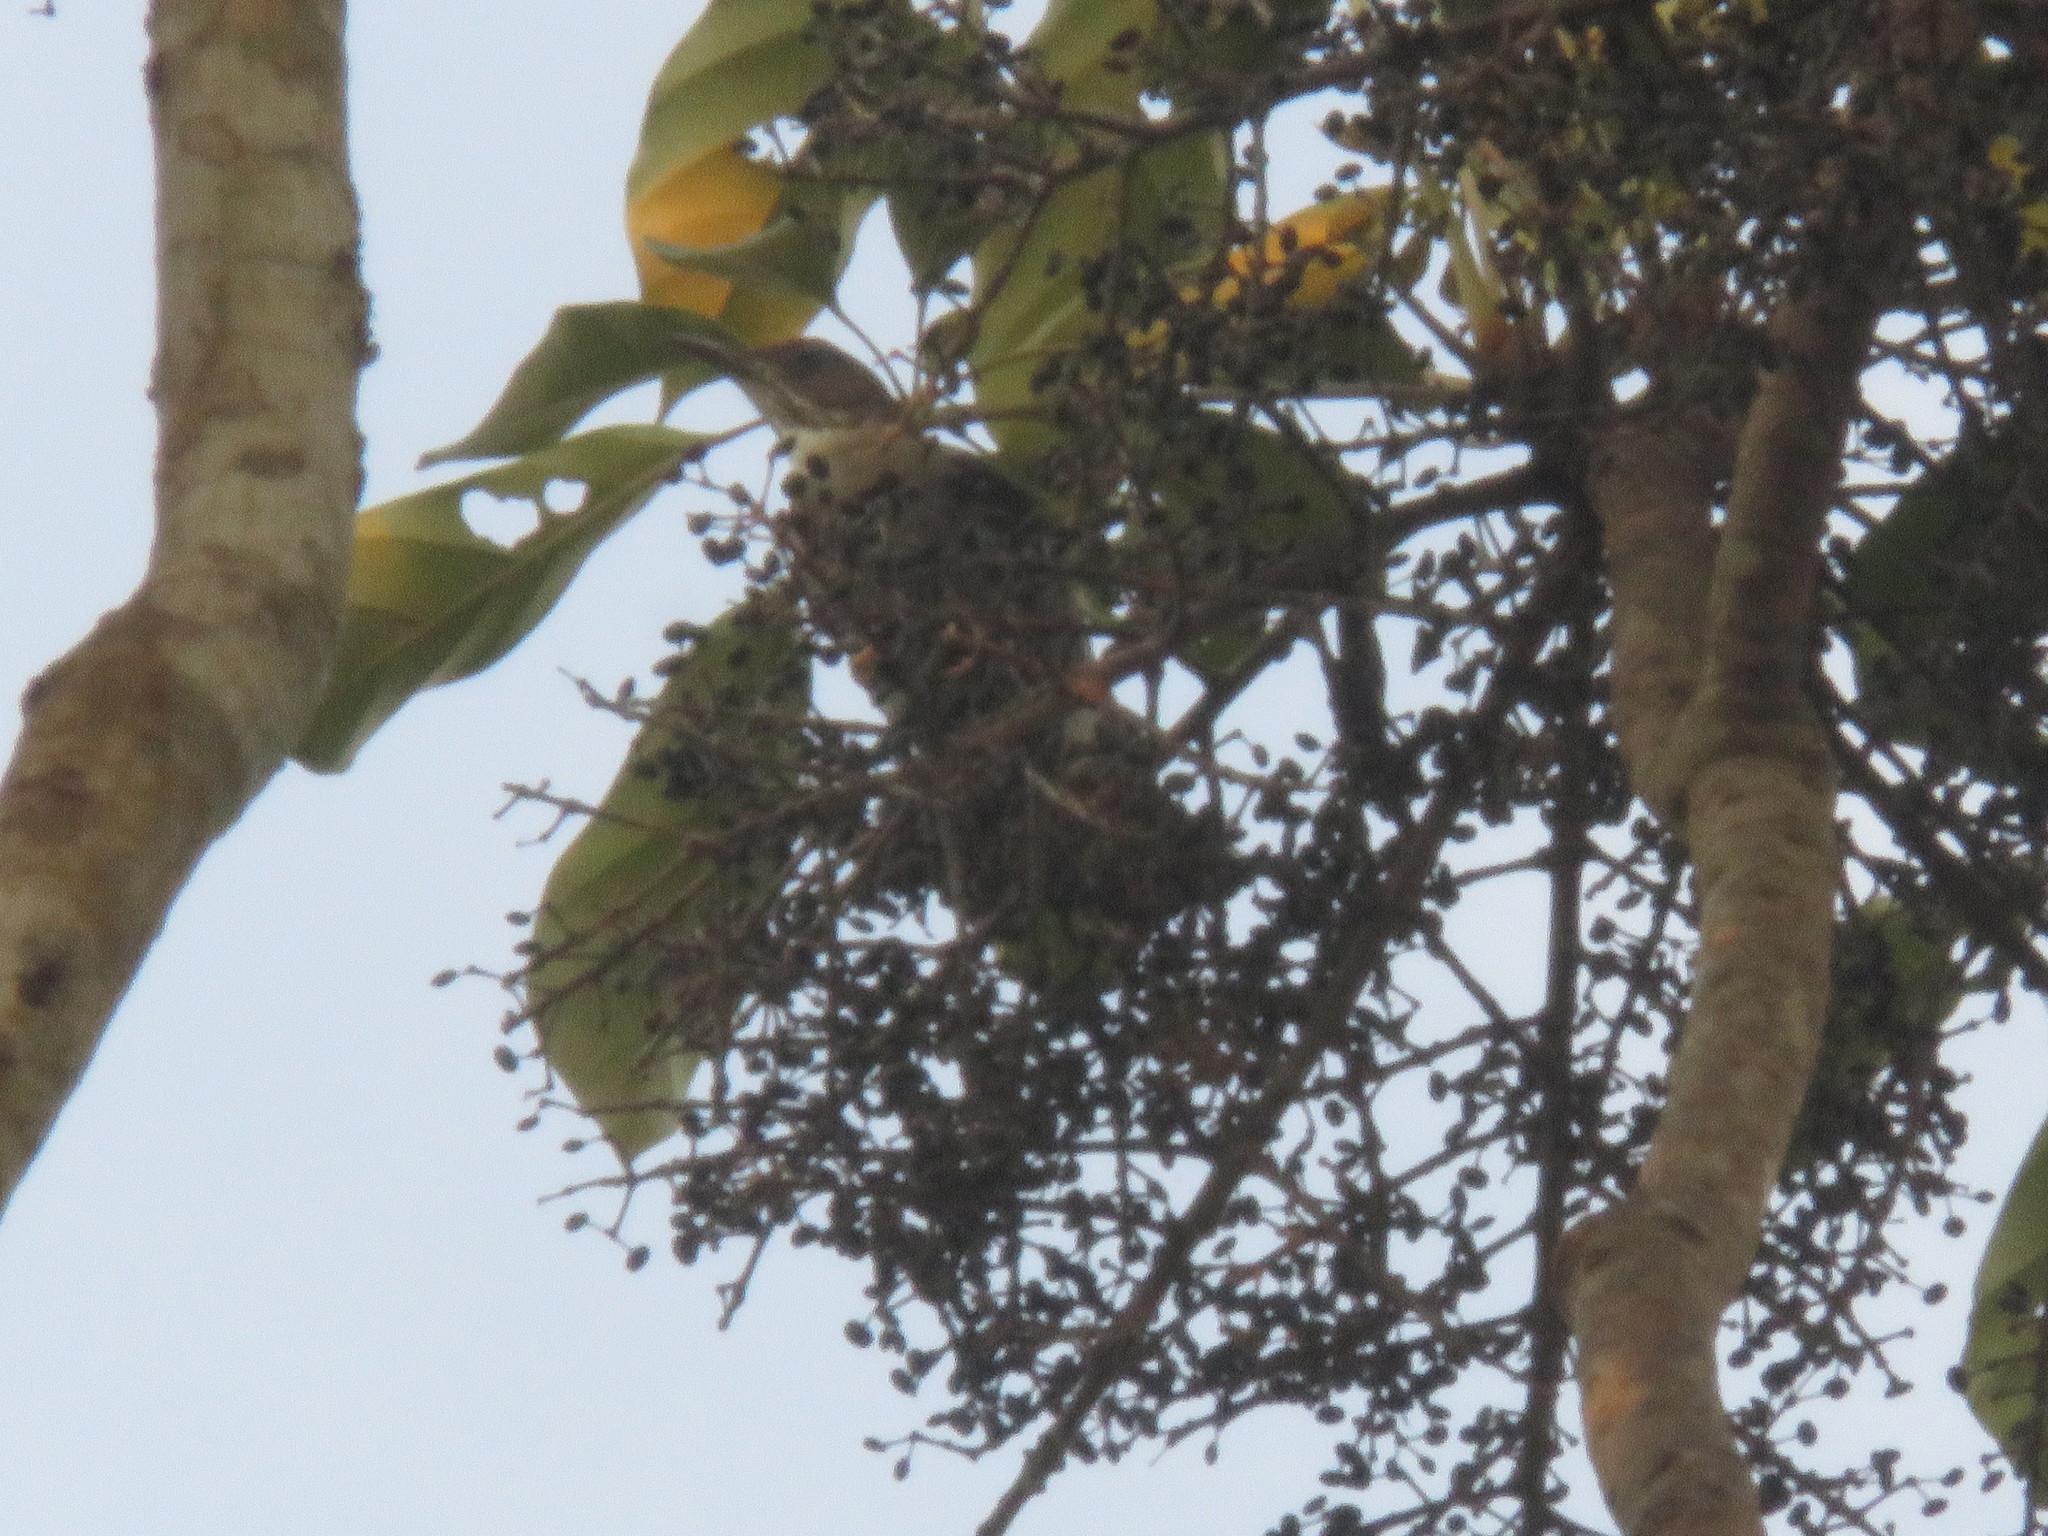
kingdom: Animalia
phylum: Chordata
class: Aves
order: Passeriformes
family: Turdidae
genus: Turdus
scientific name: Turdus ignobilis
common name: Black-billed thrush
